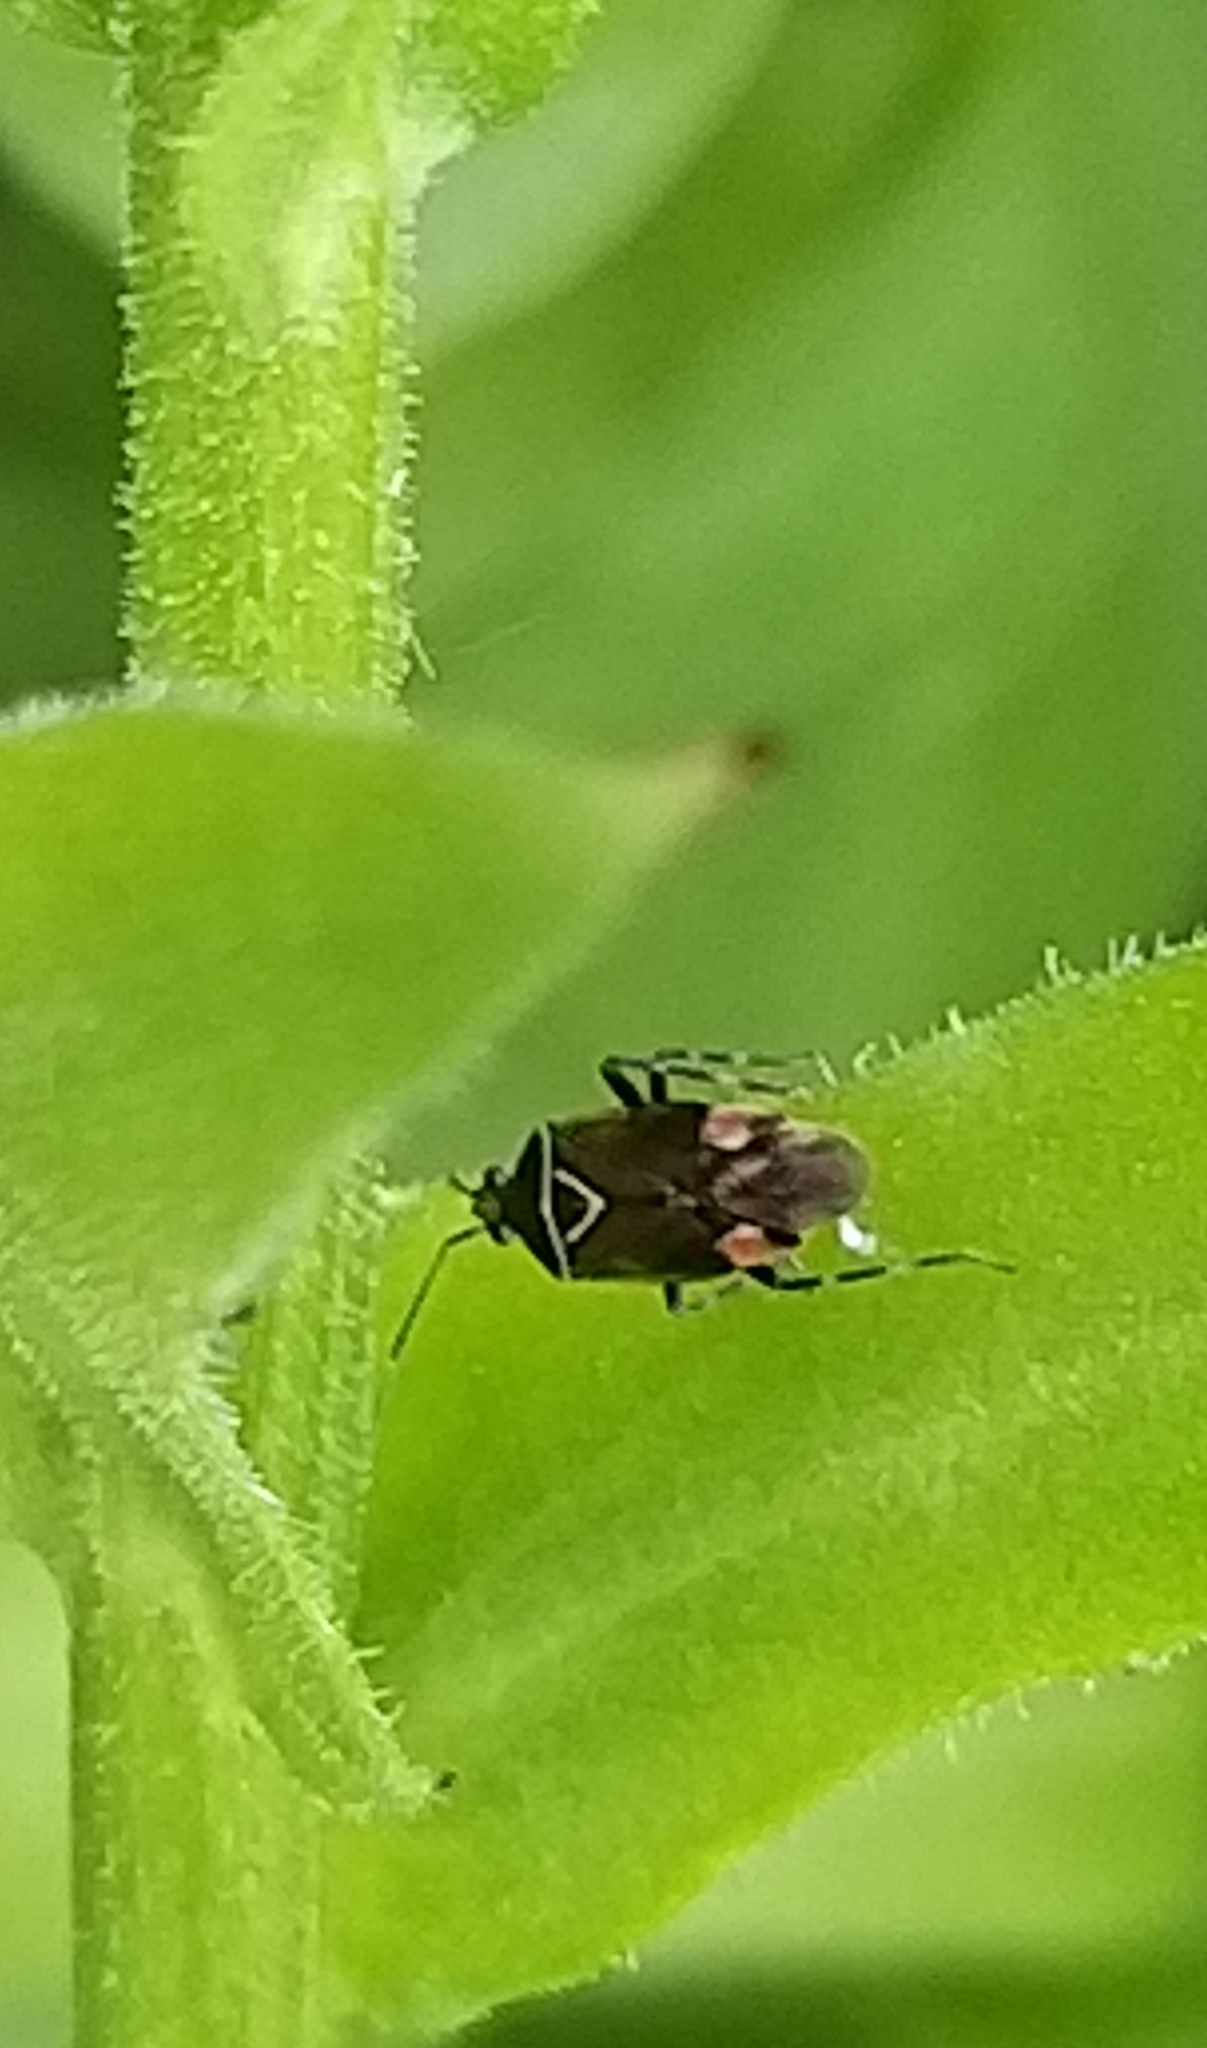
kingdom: Animalia
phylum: Arthropoda
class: Insecta
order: Hemiptera
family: Miridae
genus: Deraeocoris
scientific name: Deraeocoris flavilinea
